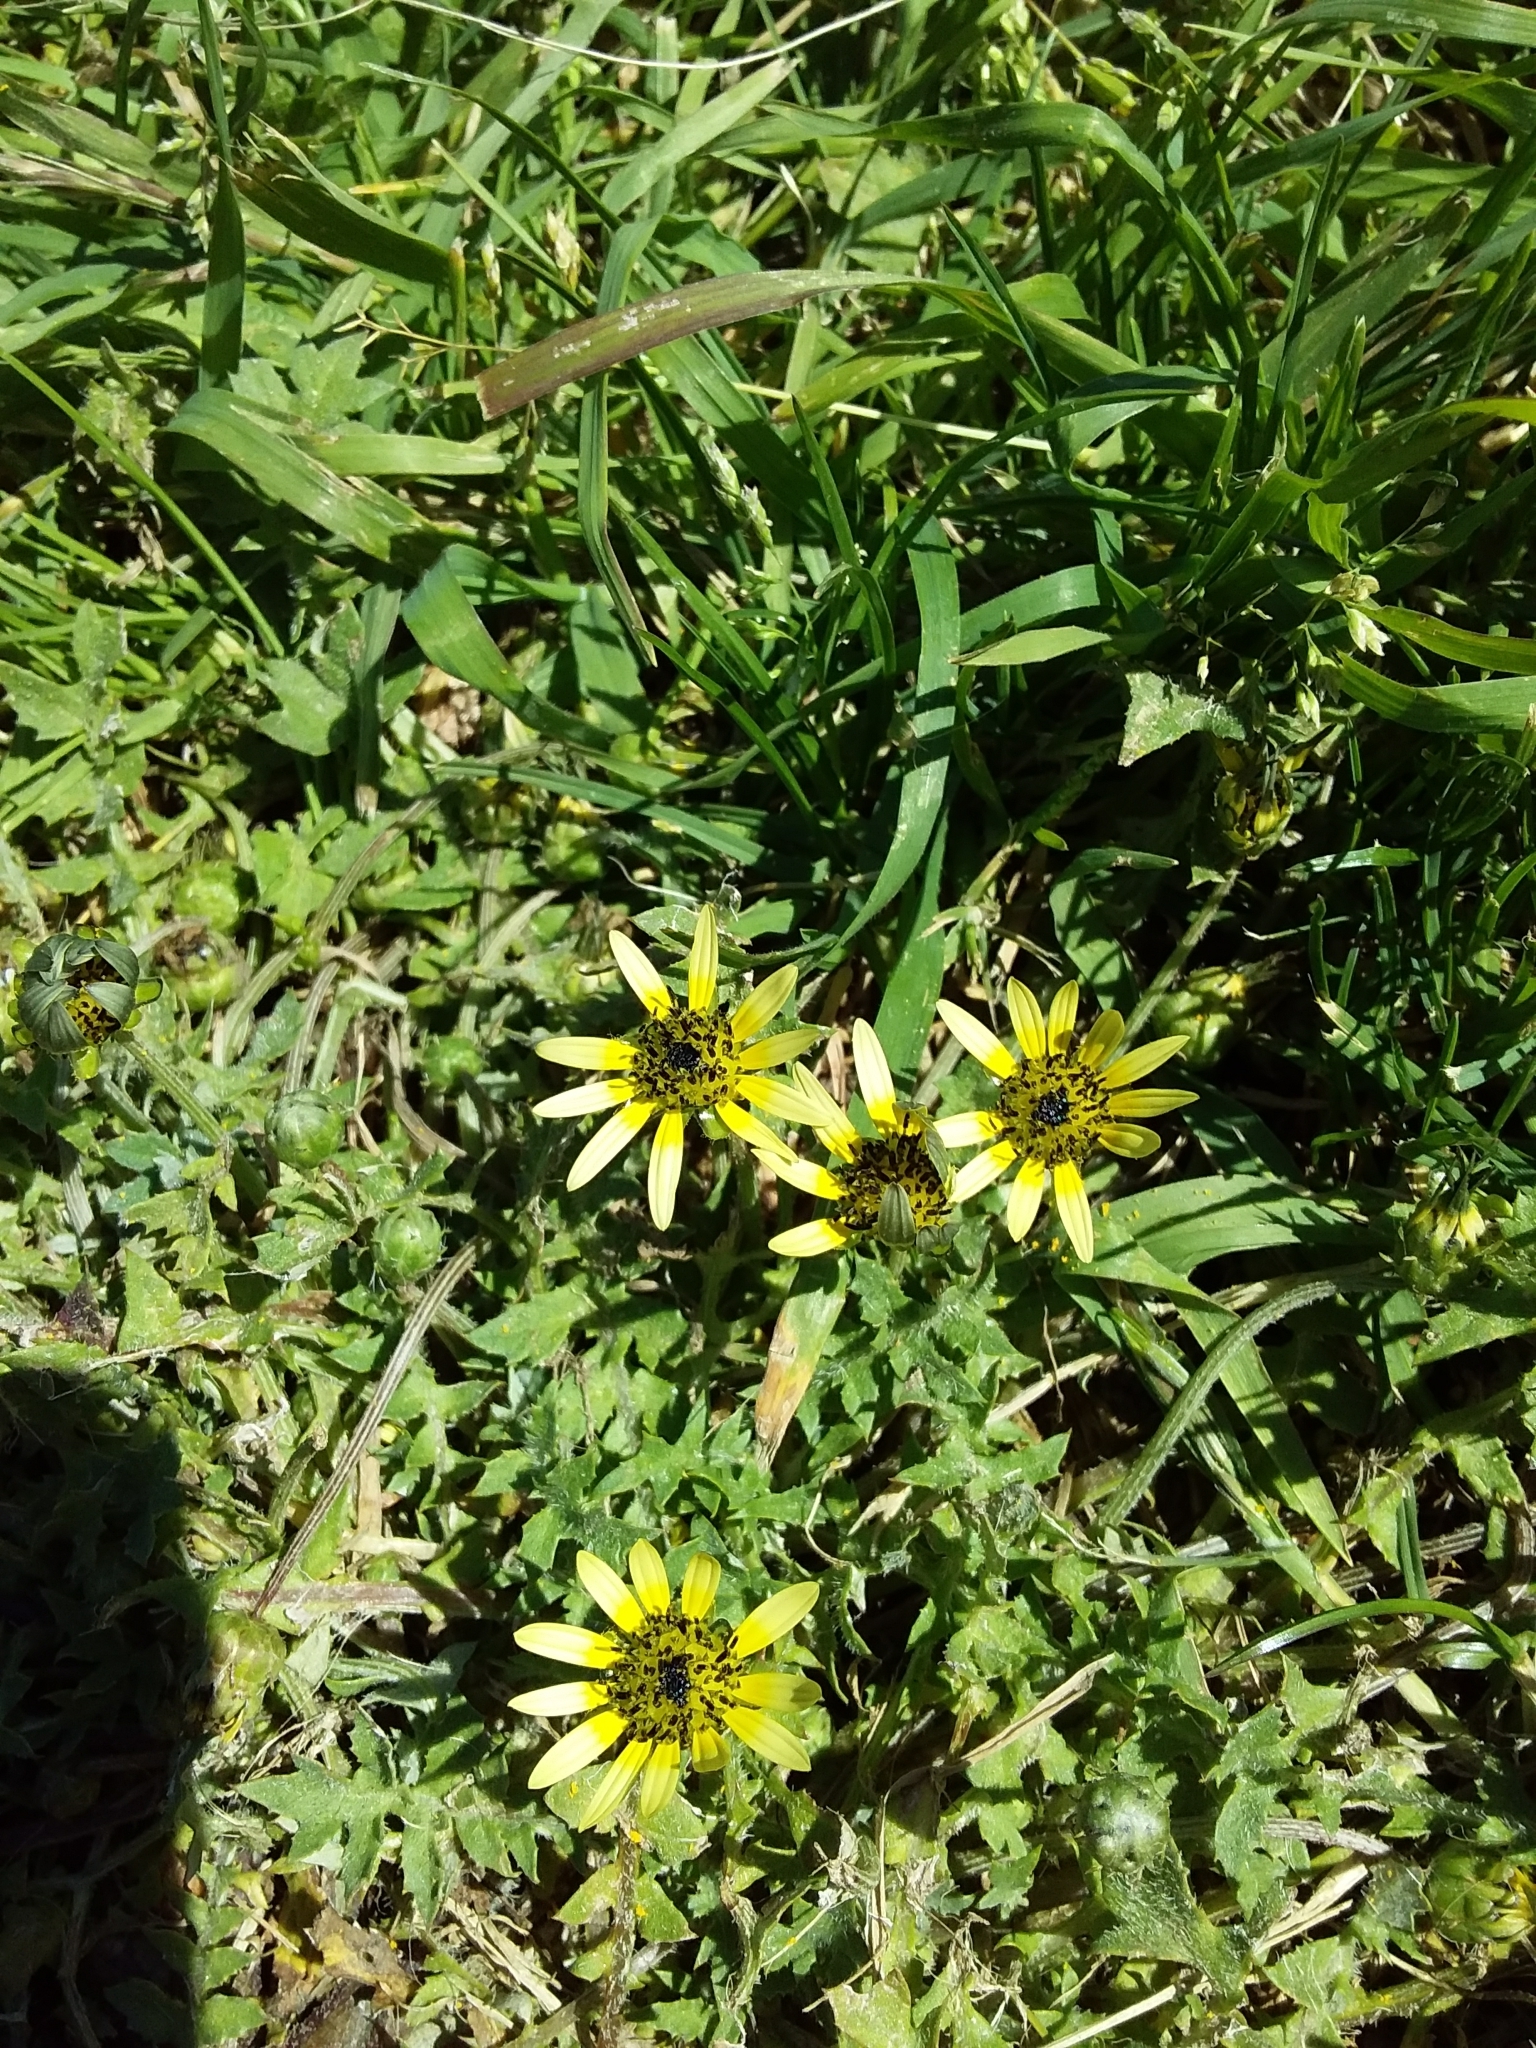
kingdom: Plantae
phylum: Tracheophyta
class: Magnoliopsida
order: Asterales
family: Asteraceae
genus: Arctotheca
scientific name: Arctotheca calendula
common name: Capeweed
